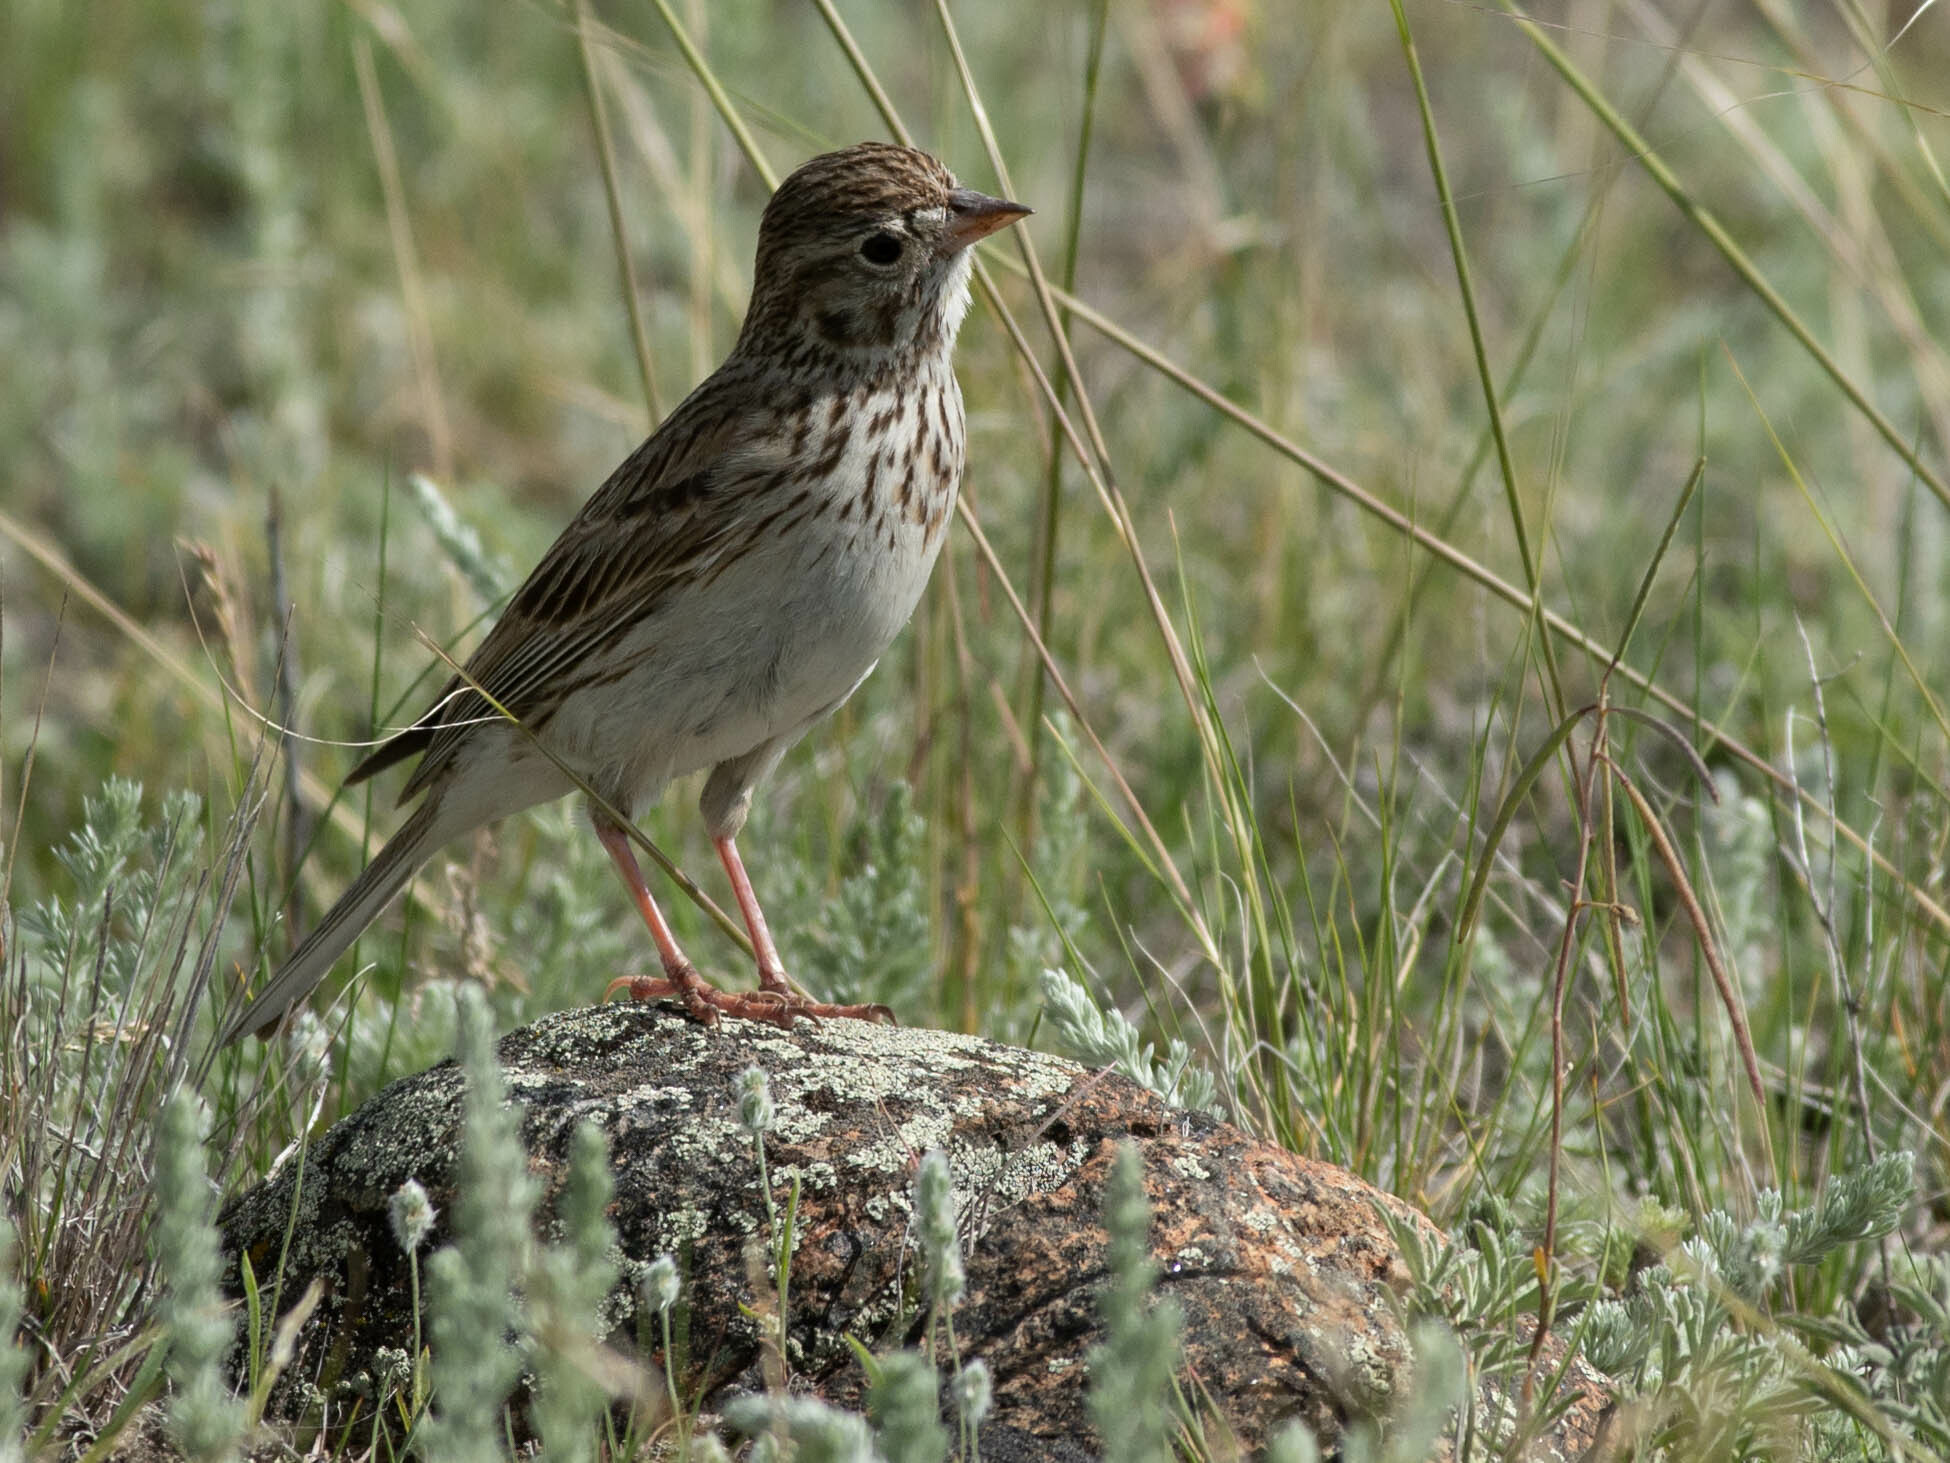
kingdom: Animalia
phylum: Chordata
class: Aves
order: Passeriformes
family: Passerellidae
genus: Pooecetes
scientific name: Pooecetes gramineus
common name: Vesper sparrow
